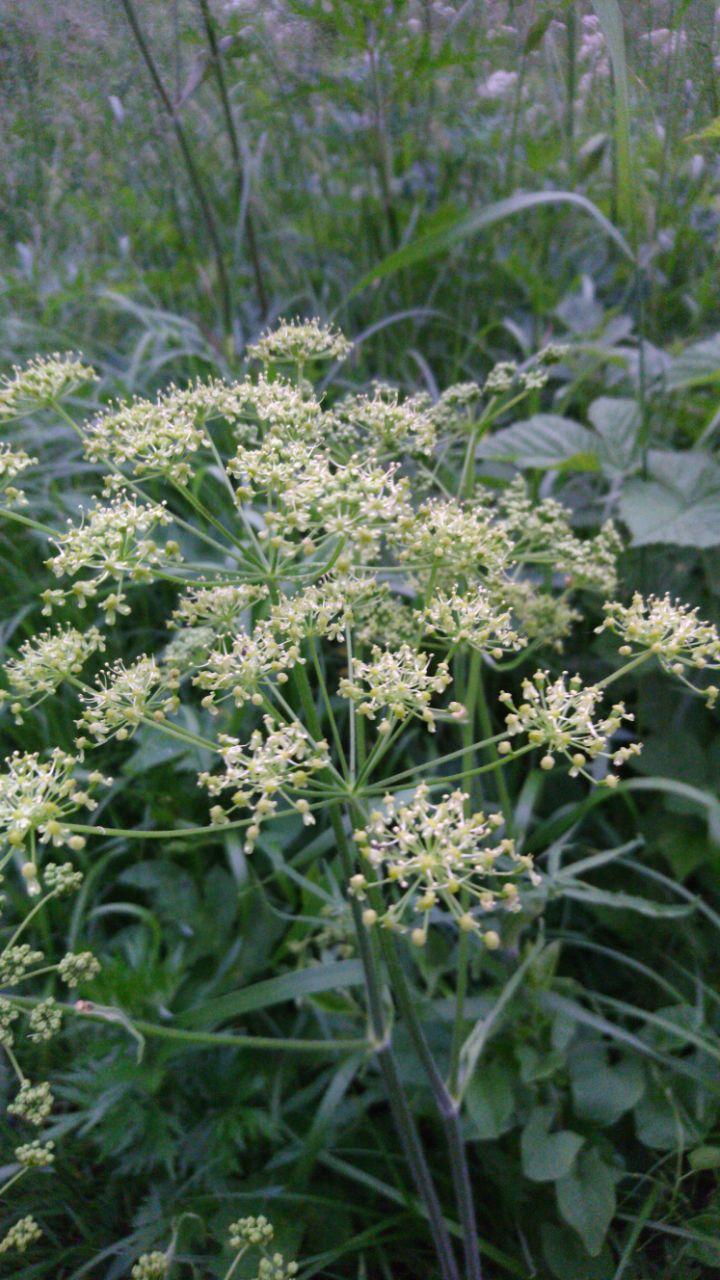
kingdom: Plantae
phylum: Tracheophyta
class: Magnoliopsida
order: Apiales
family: Apiaceae
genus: Heracleum
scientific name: Heracleum sphondylium
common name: Hogweed
